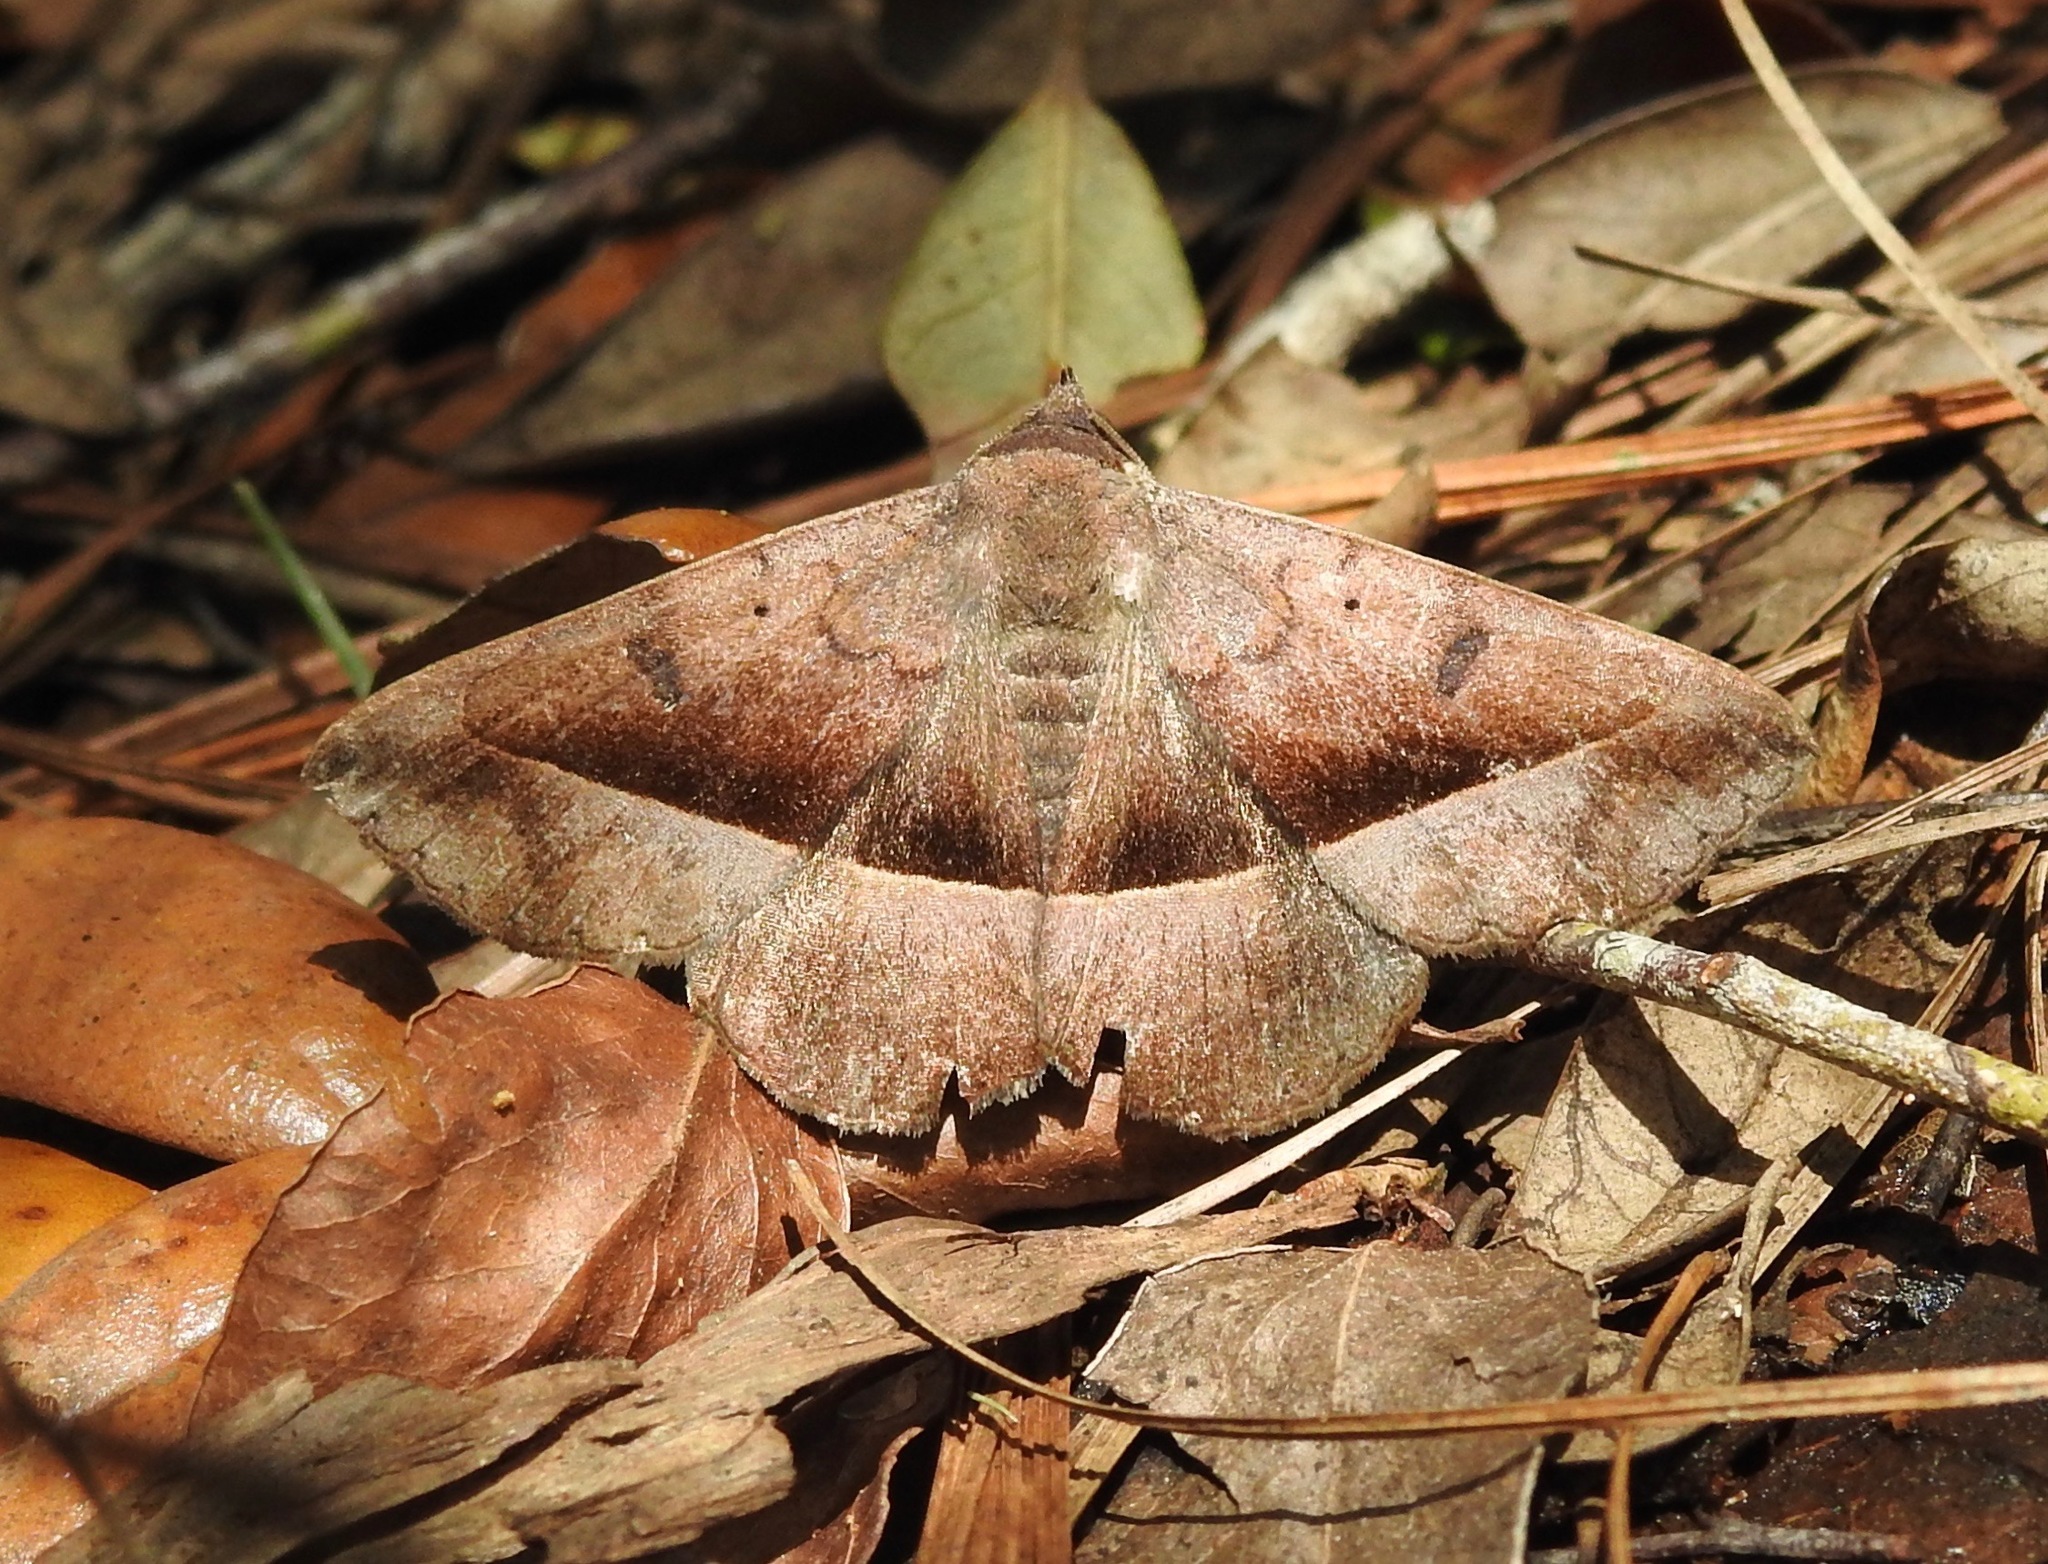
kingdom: Animalia
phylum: Arthropoda
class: Insecta
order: Lepidoptera
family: Erebidae
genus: Epidromia
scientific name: Epidromia rotundata
